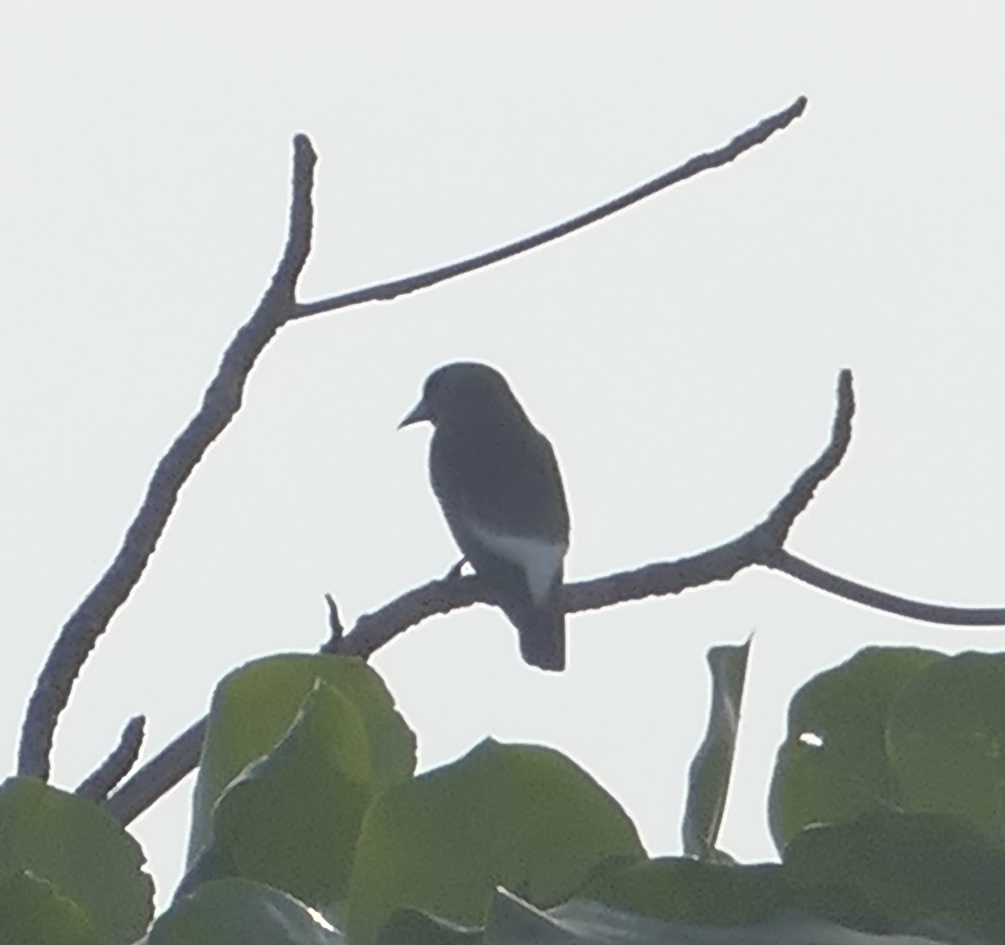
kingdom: Animalia
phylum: Chordata
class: Aves
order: Passeriformes
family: Artamidae
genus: Artamus
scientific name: Artamus leucoryn
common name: White-breasted woodswallow
